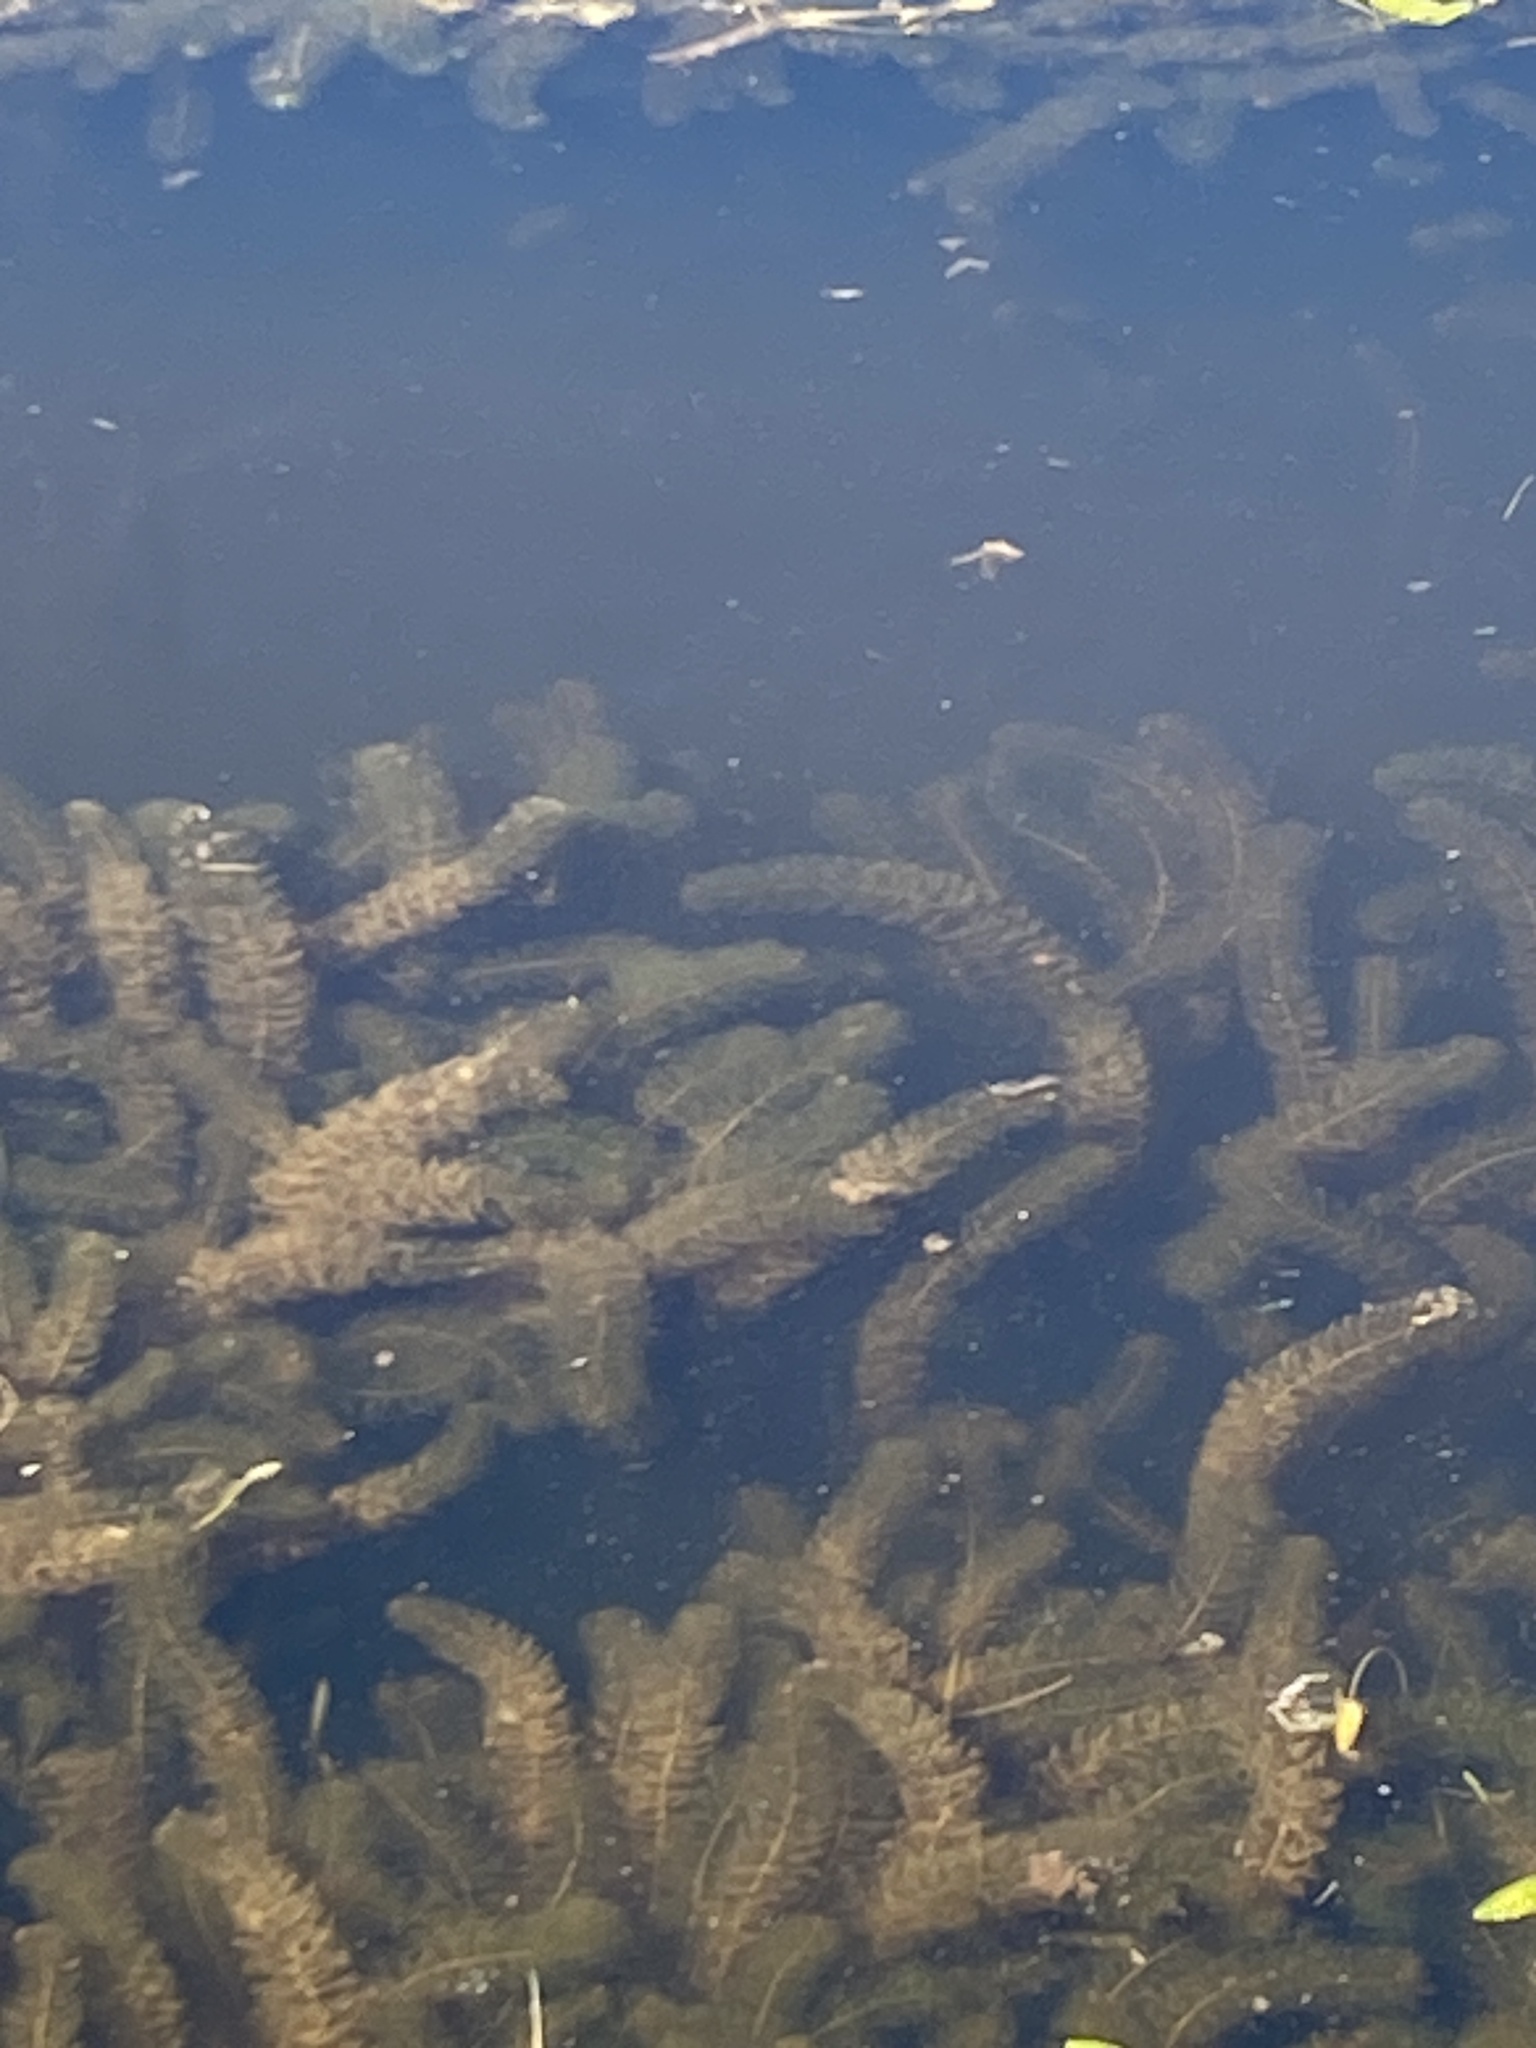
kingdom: Plantae
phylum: Tracheophyta
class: Magnoliopsida
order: Ceratophyllales
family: Ceratophyllaceae
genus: Ceratophyllum
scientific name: Ceratophyllum demersum
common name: Rigid hornwort
